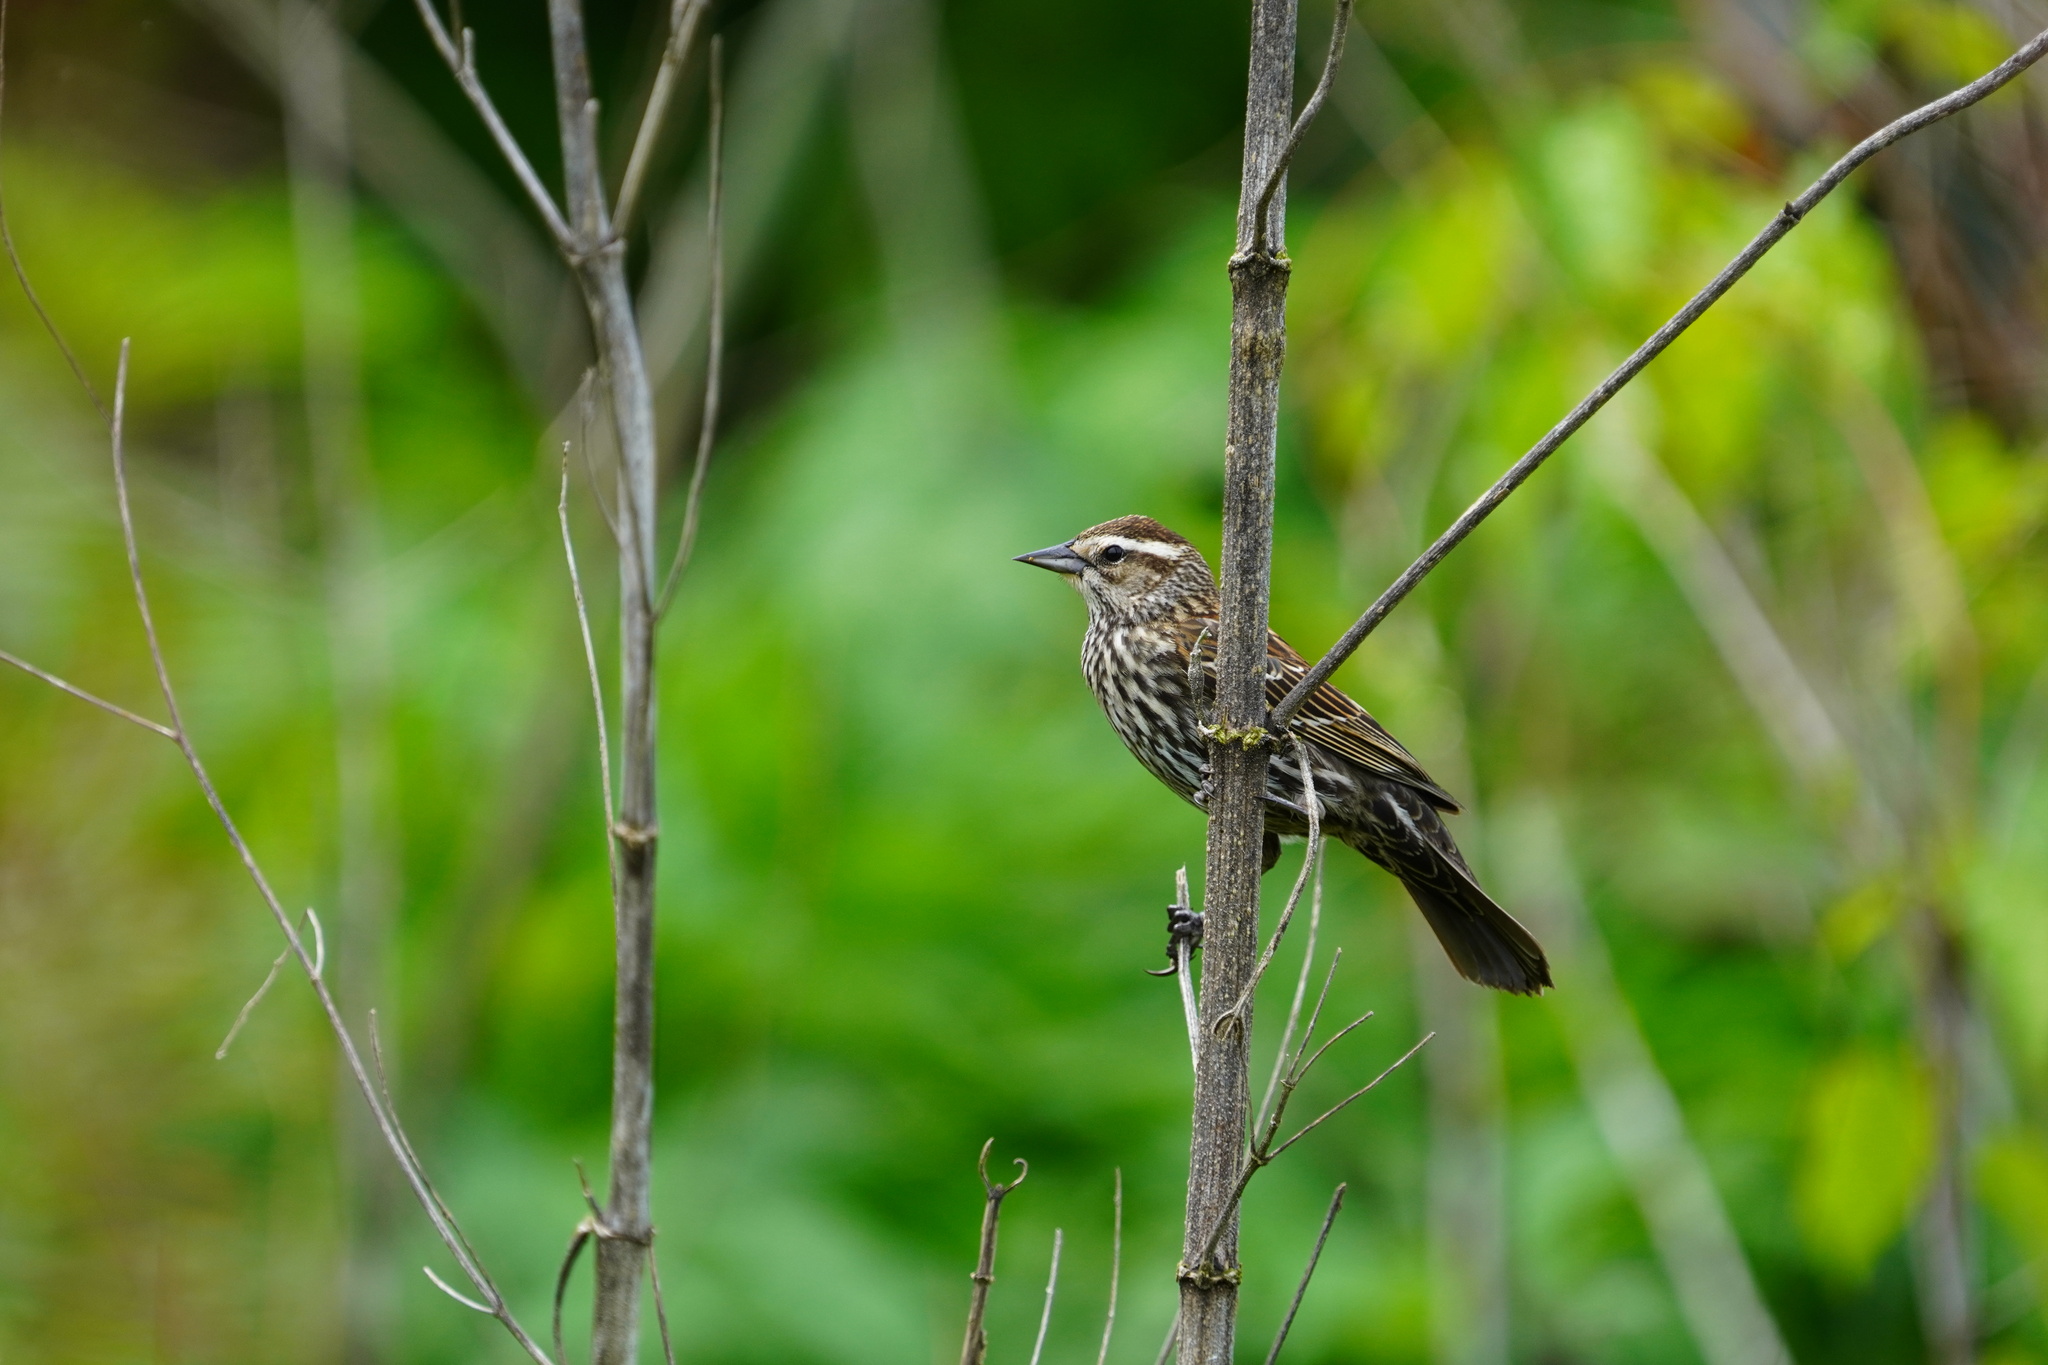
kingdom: Animalia
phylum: Chordata
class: Aves
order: Passeriformes
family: Icteridae
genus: Agelaius
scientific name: Agelaius phoeniceus
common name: Red-winged blackbird
